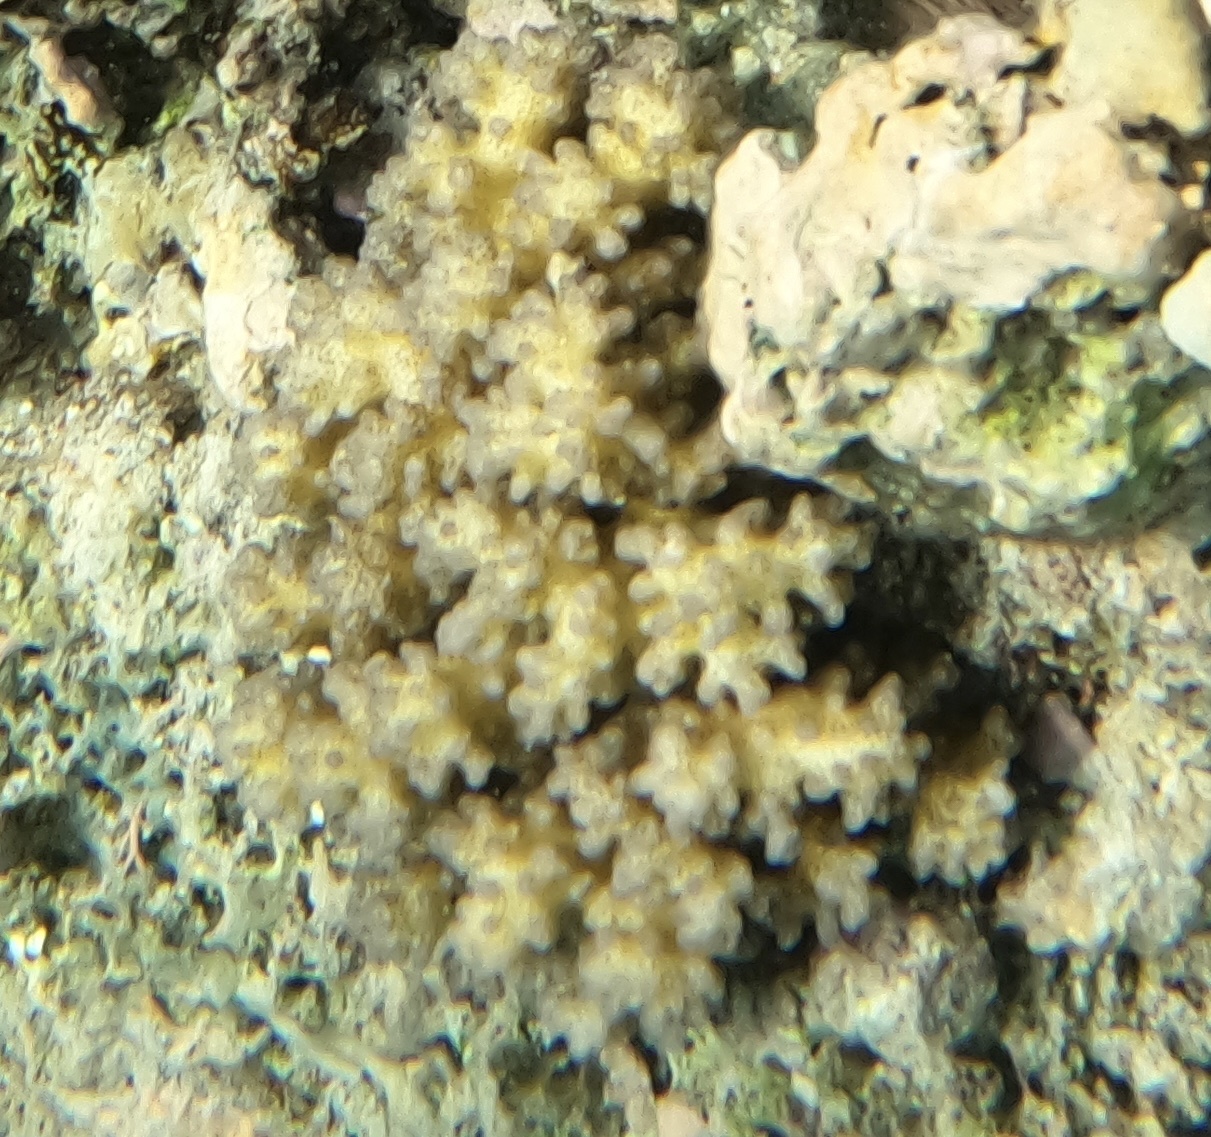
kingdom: Animalia
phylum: Cnidaria
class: Anthozoa
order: Scleractinia
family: Pocilloporidae
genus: Pocillopora
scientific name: Pocillopora damicornis
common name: Cauliflower coral
